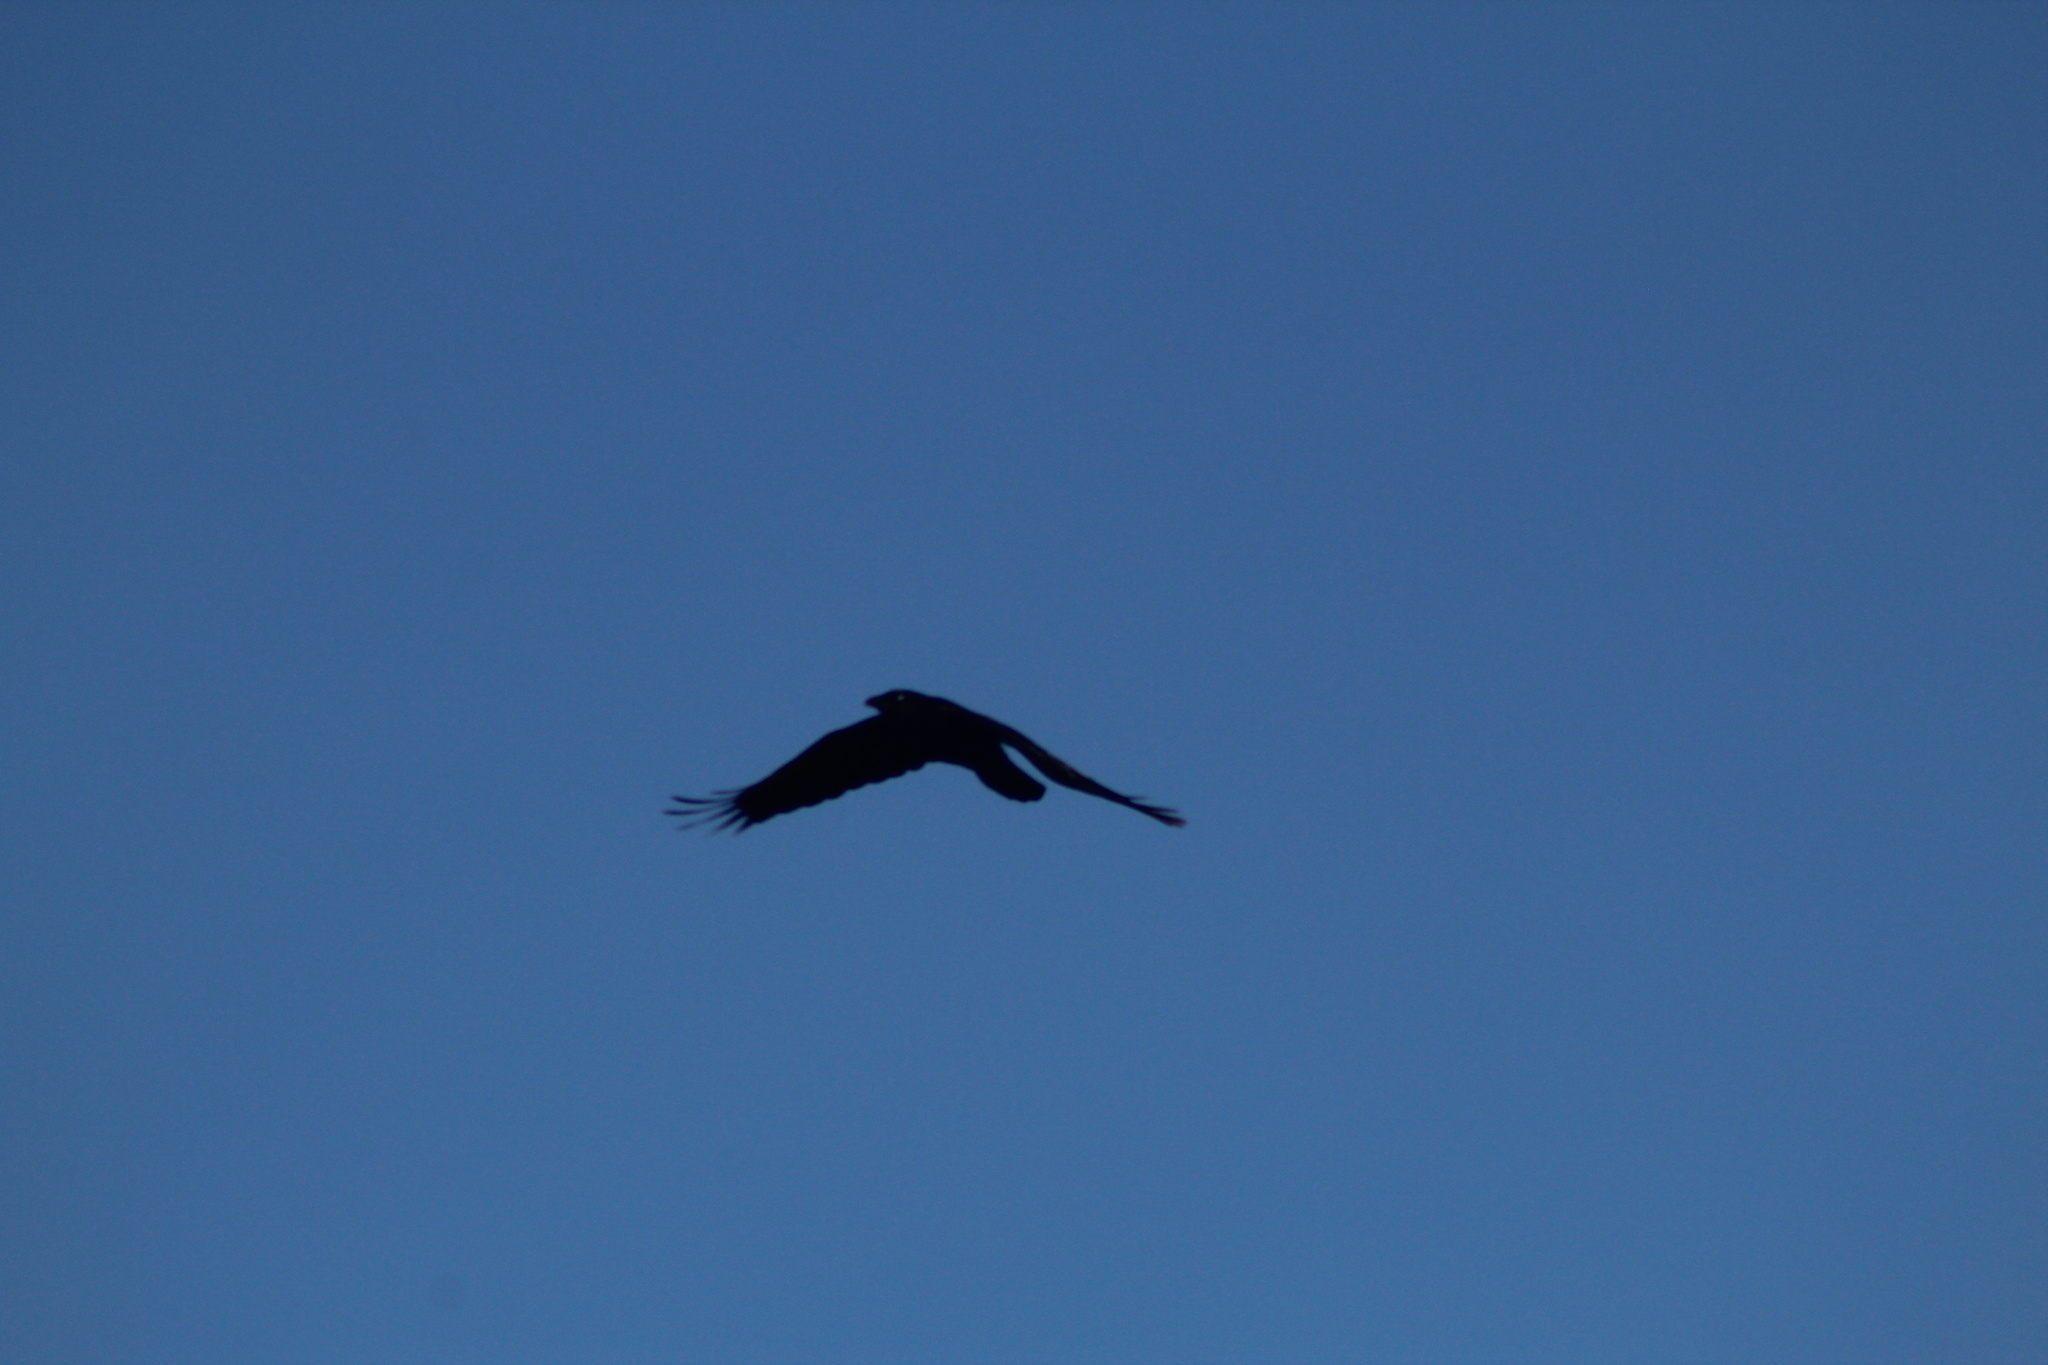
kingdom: Animalia
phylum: Chordata
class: Aves
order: Passeriformes
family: Corvidae
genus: Corvus
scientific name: Corvus brachyrhynchos
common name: American crow
